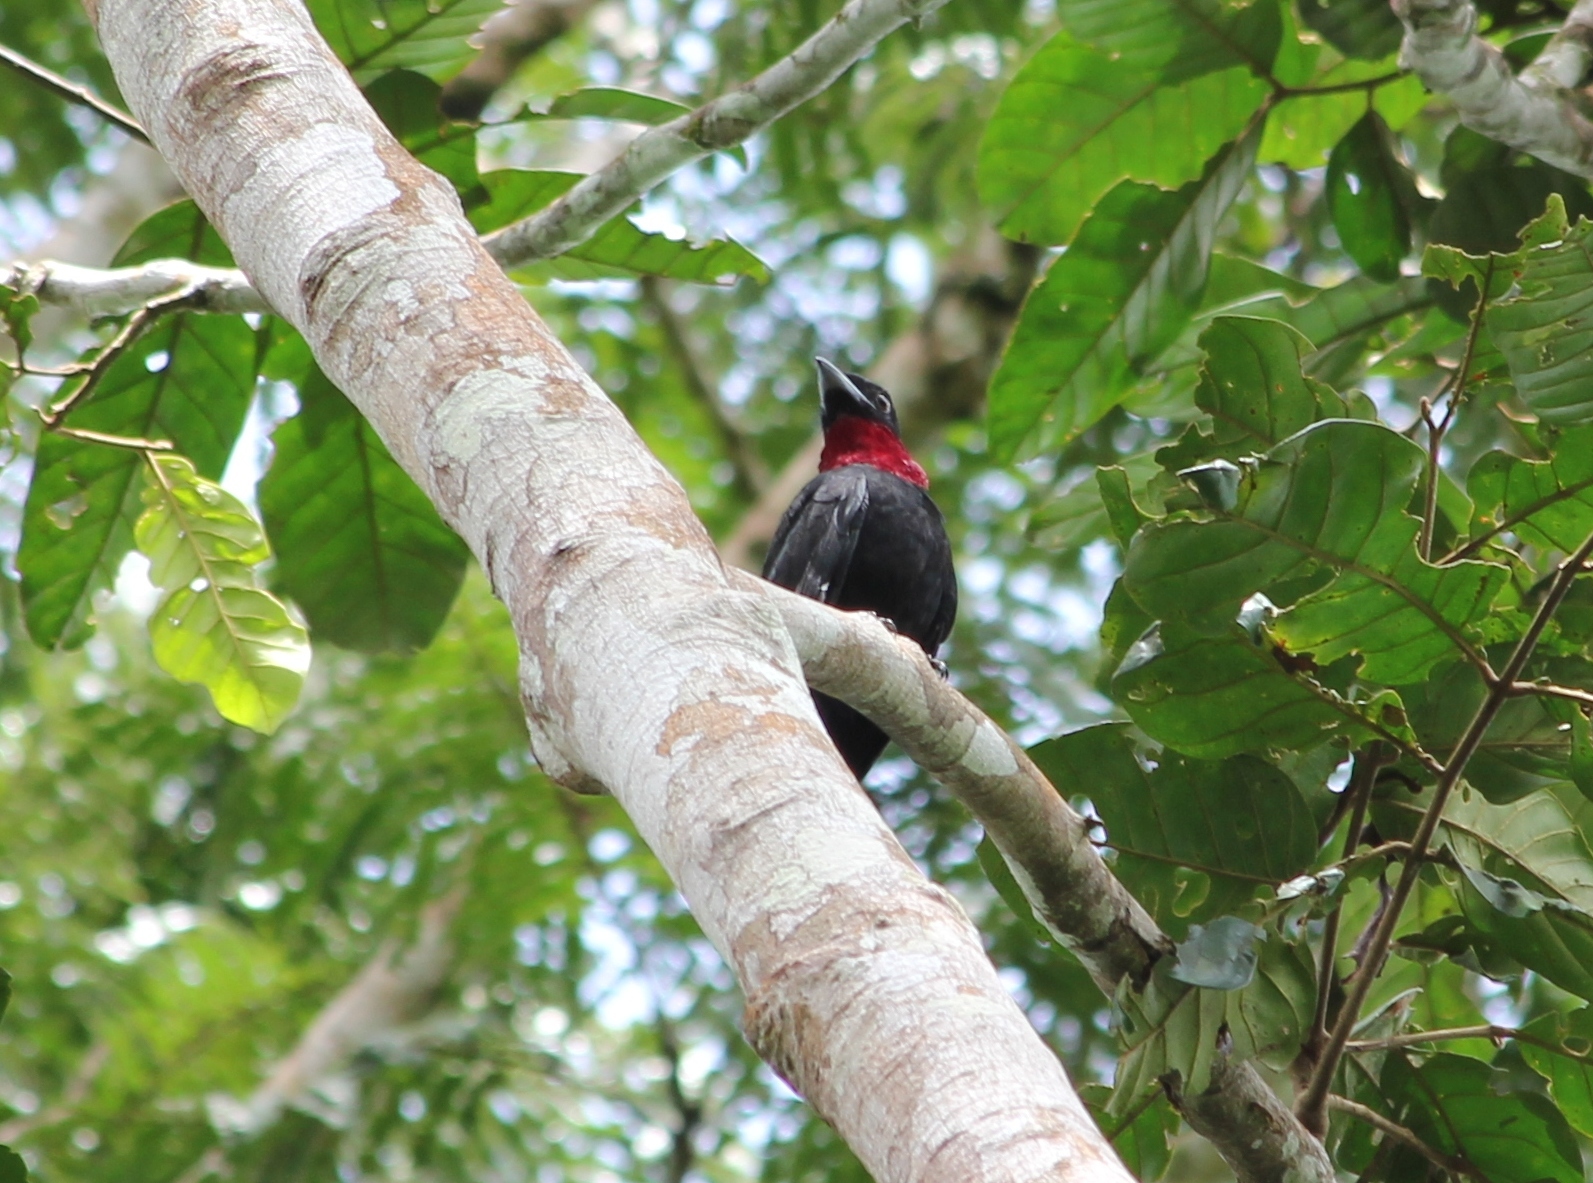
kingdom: Animalia
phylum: Chordata
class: Aves
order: Passeriformes
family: Cotingidae
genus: Querula
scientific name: Querula purpurata
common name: Purple-throated fruitcrow
